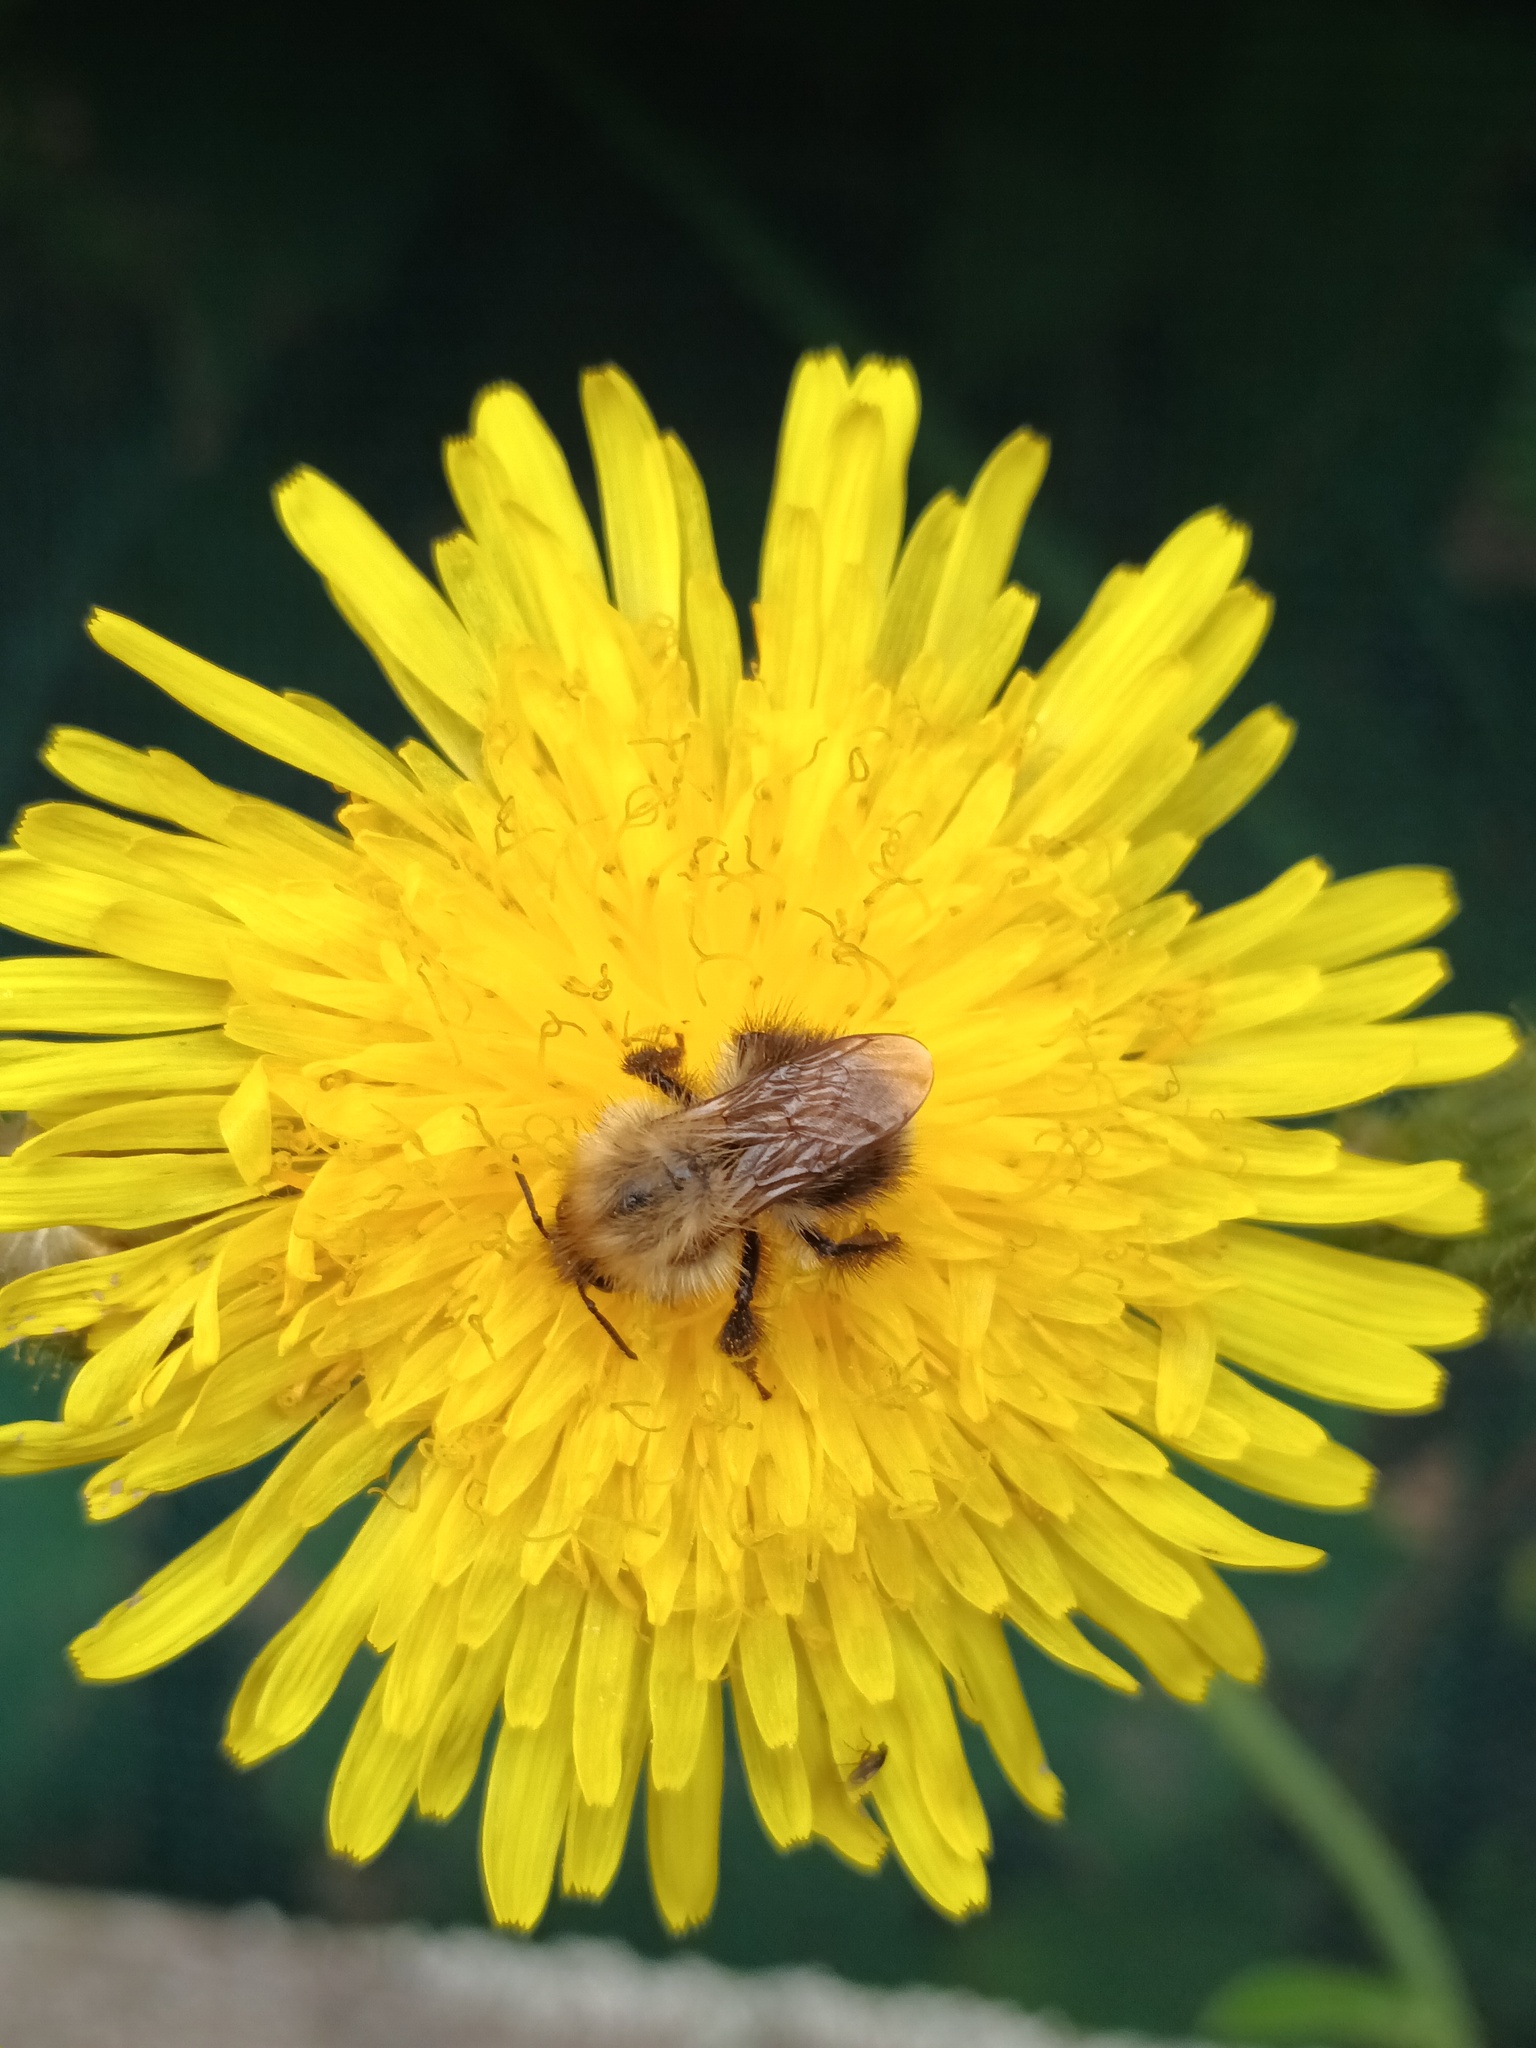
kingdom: Animalia
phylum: Arthropoda
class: Insecta
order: Hymenoptera
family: Apidae
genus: Bombus
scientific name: Bombus pascuorum
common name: Common carder bee
